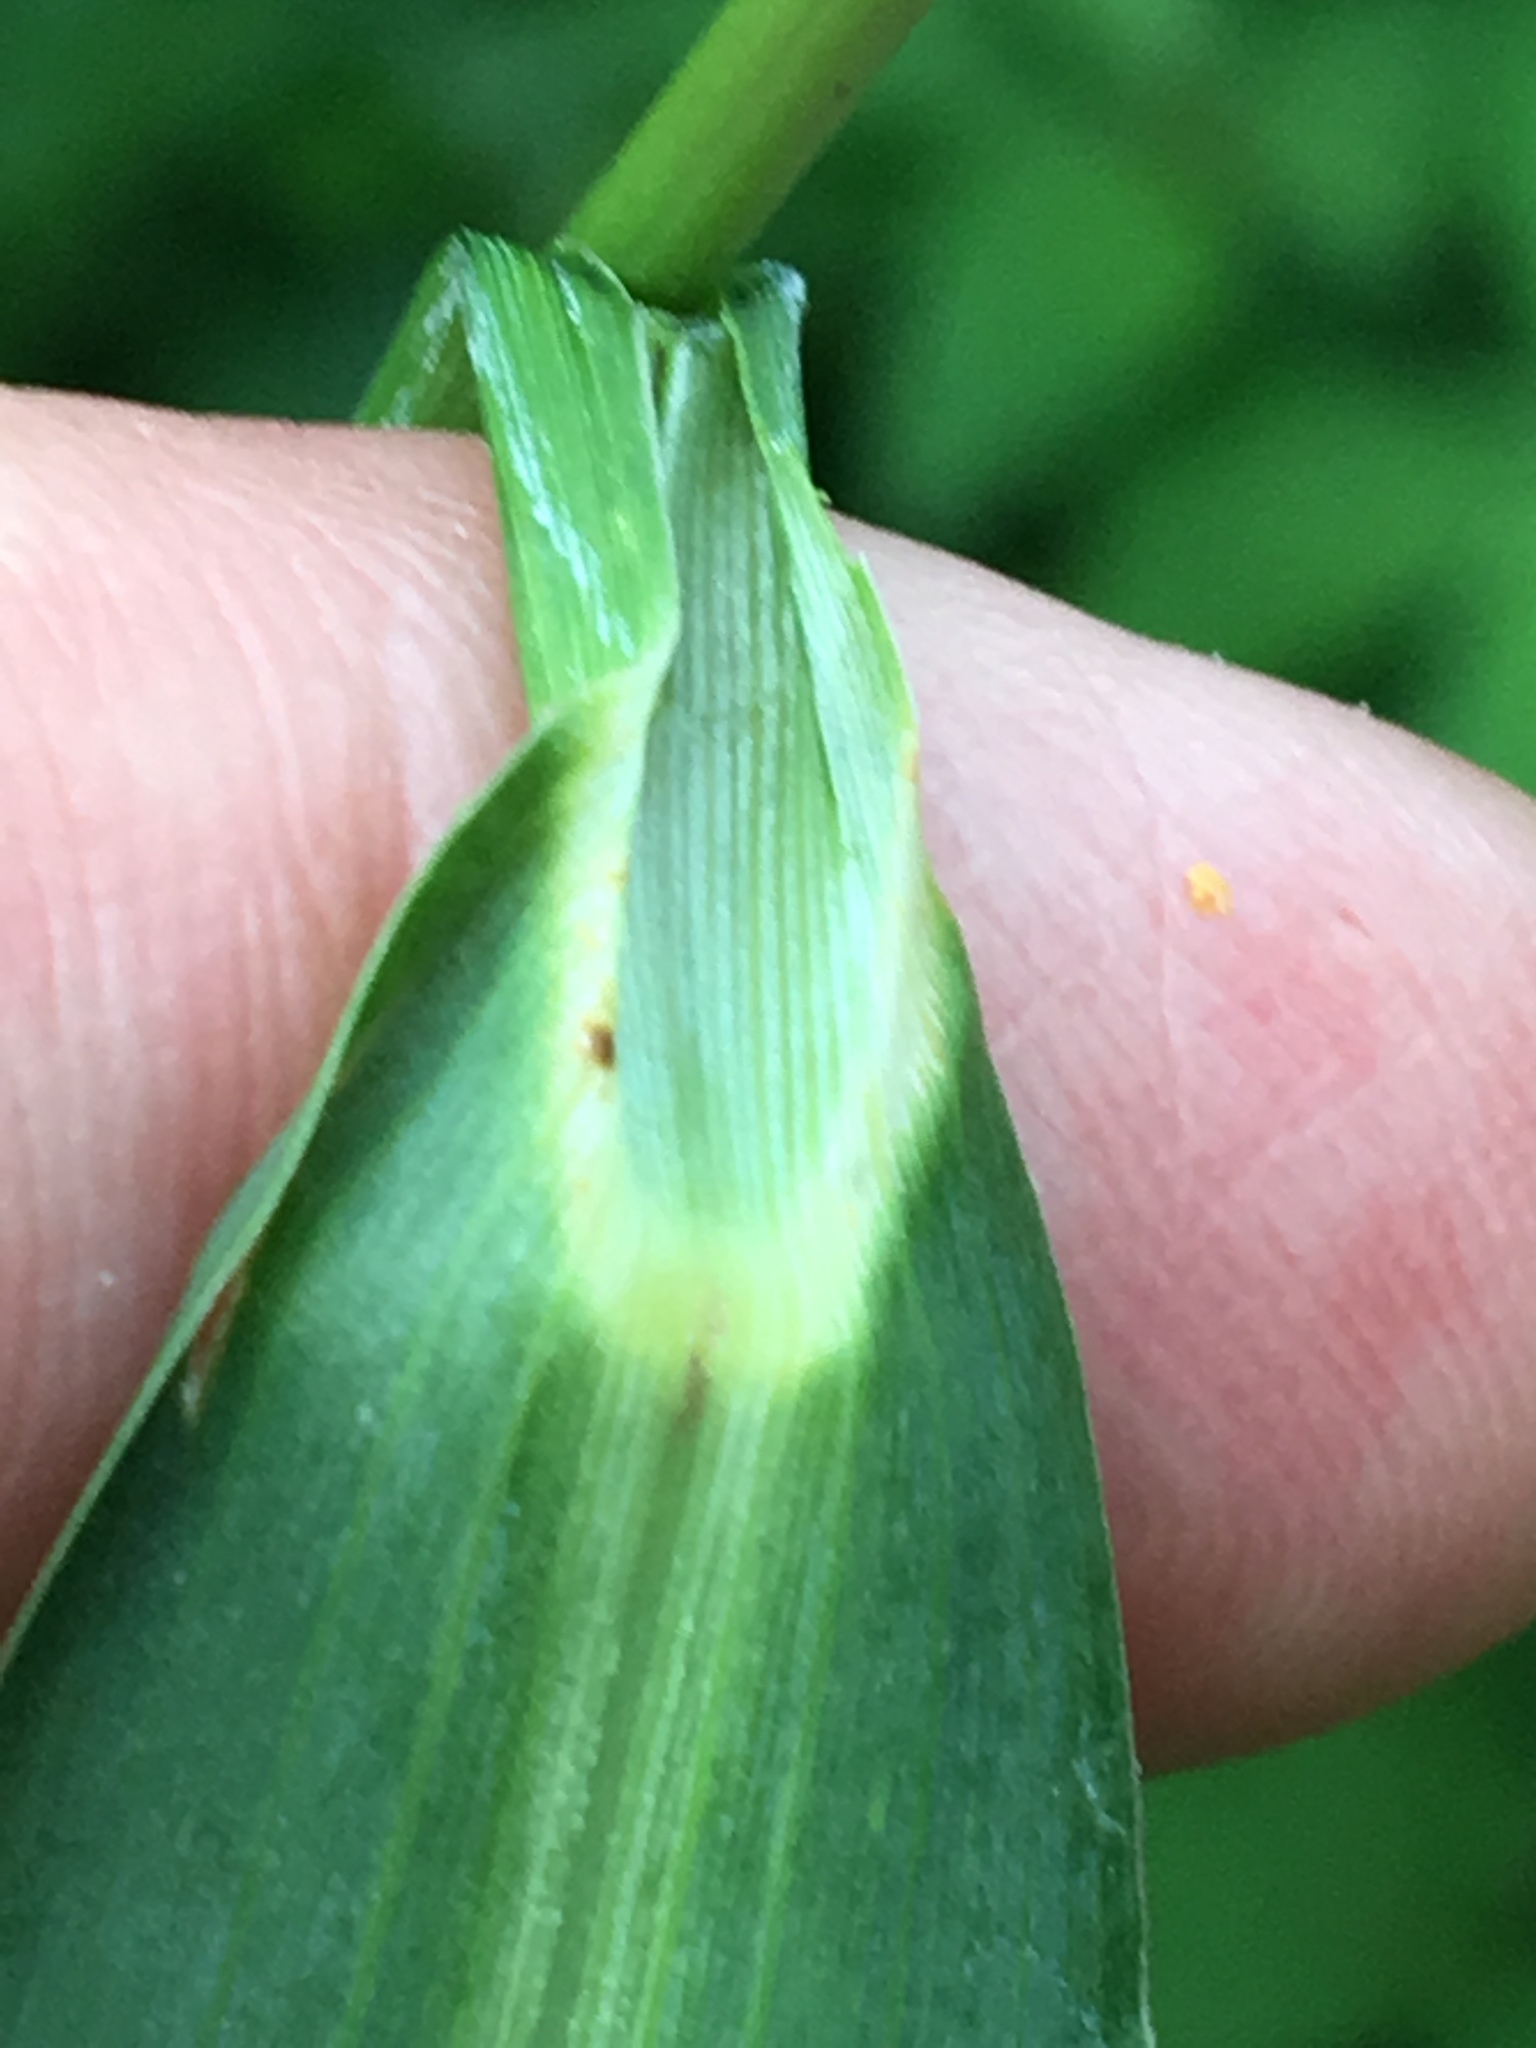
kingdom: Plantae
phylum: Tracheophyta
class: Liliopsida
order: Poales
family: Poaceae
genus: Echinochloa
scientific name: Echinochloa crus-galli
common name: Cockspur
